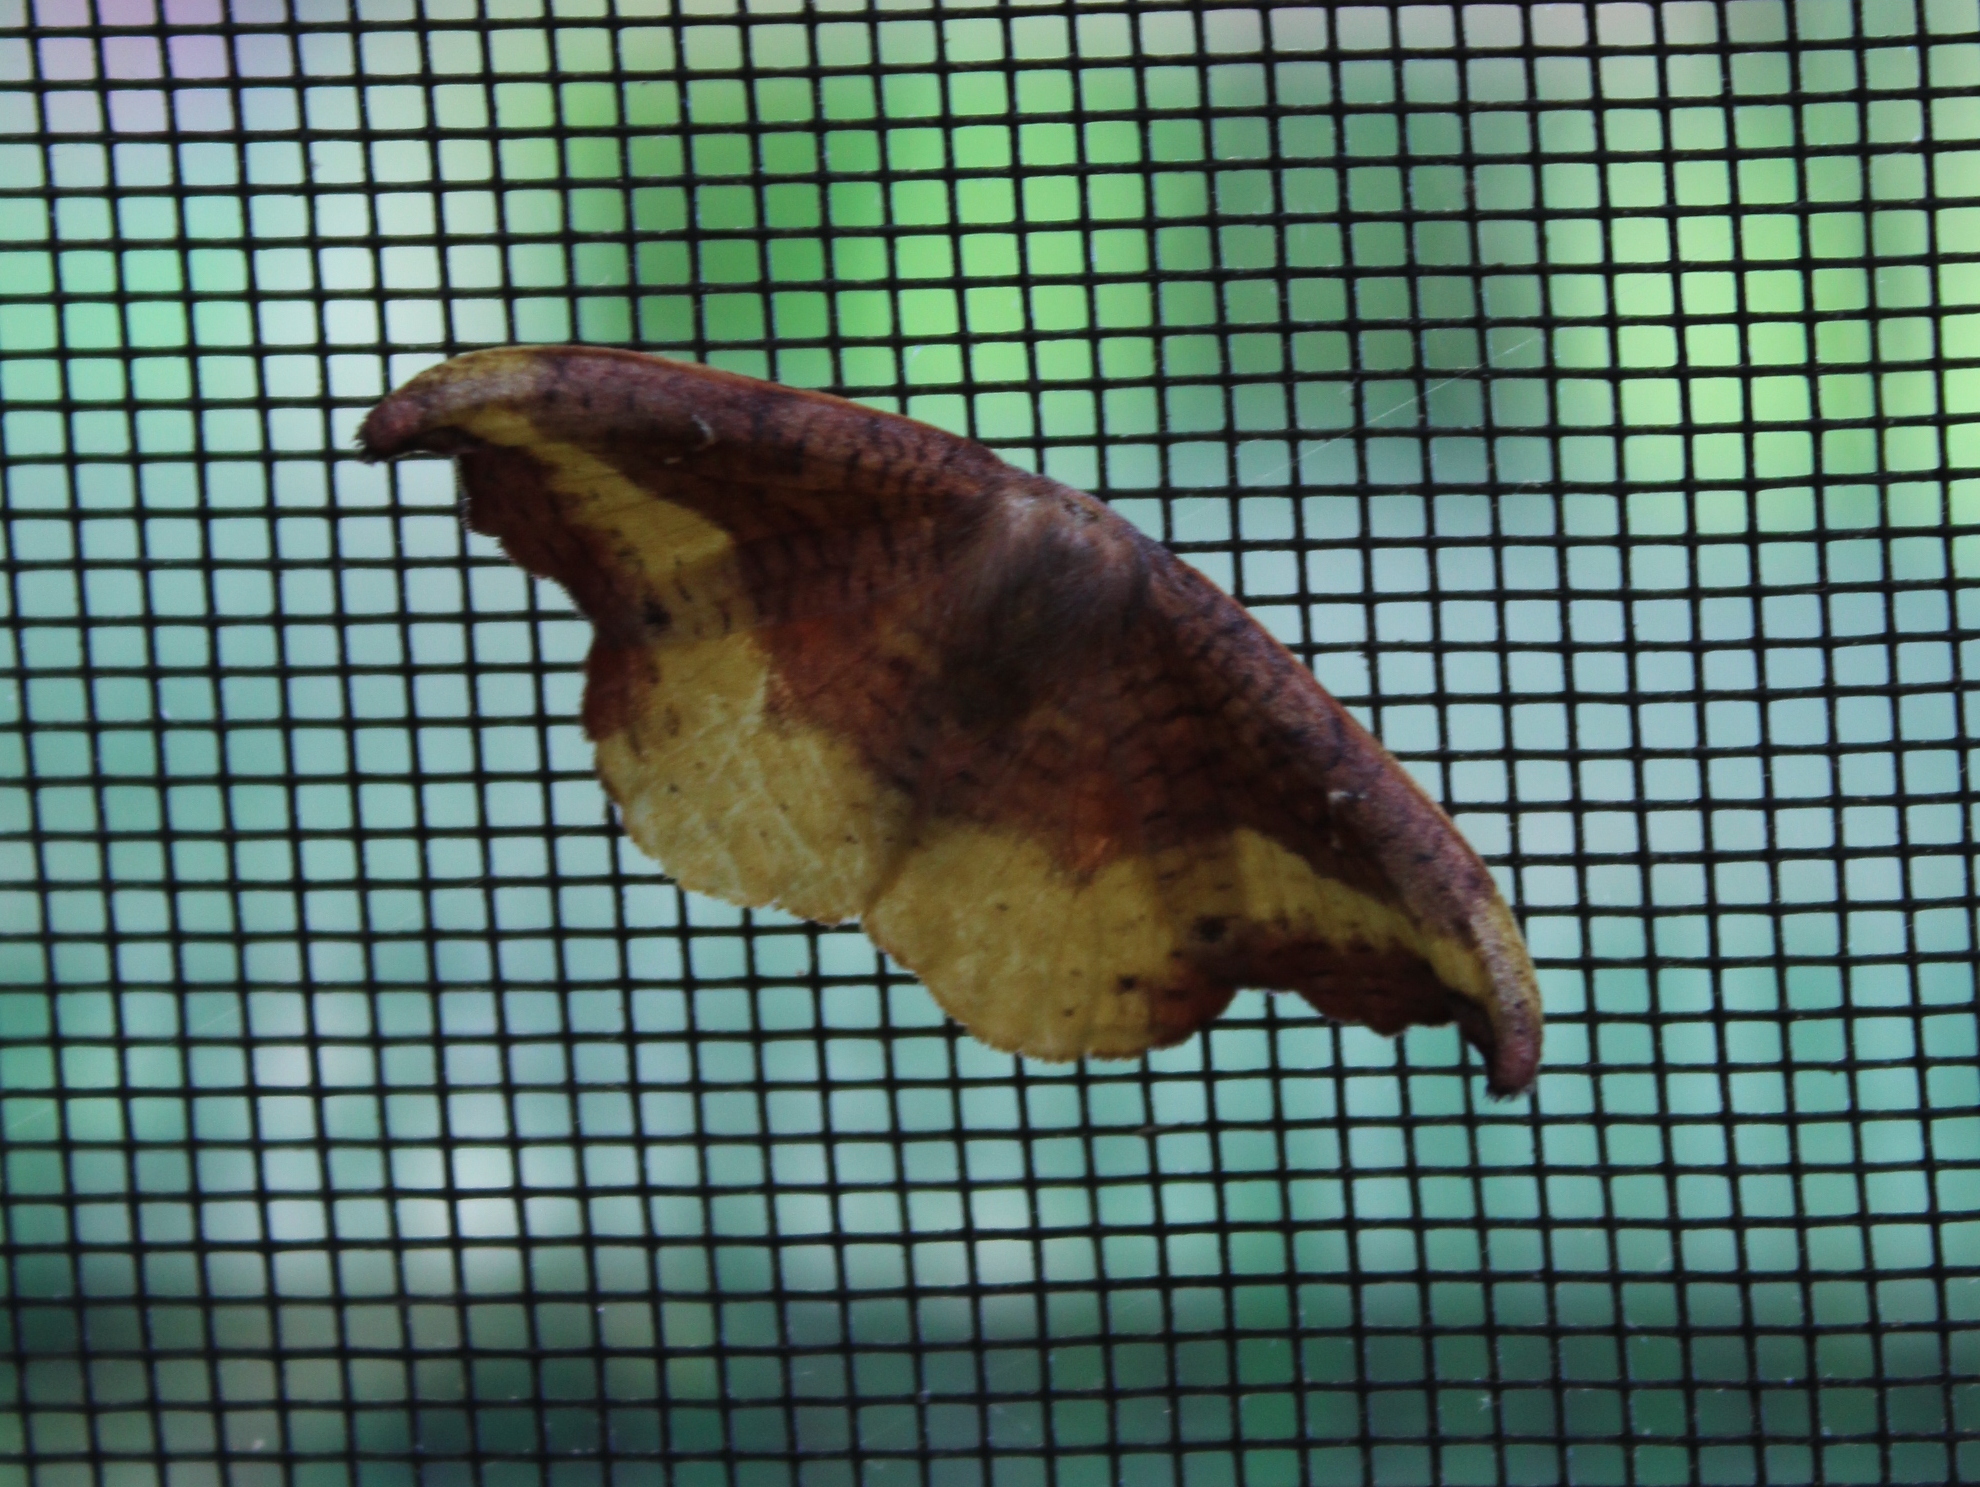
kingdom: Animalia
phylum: Arthropoda
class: Insecta
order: Lepidoptera
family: Drepanidae
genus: Oreta
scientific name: Oreta rosea
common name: Rose hooktip
